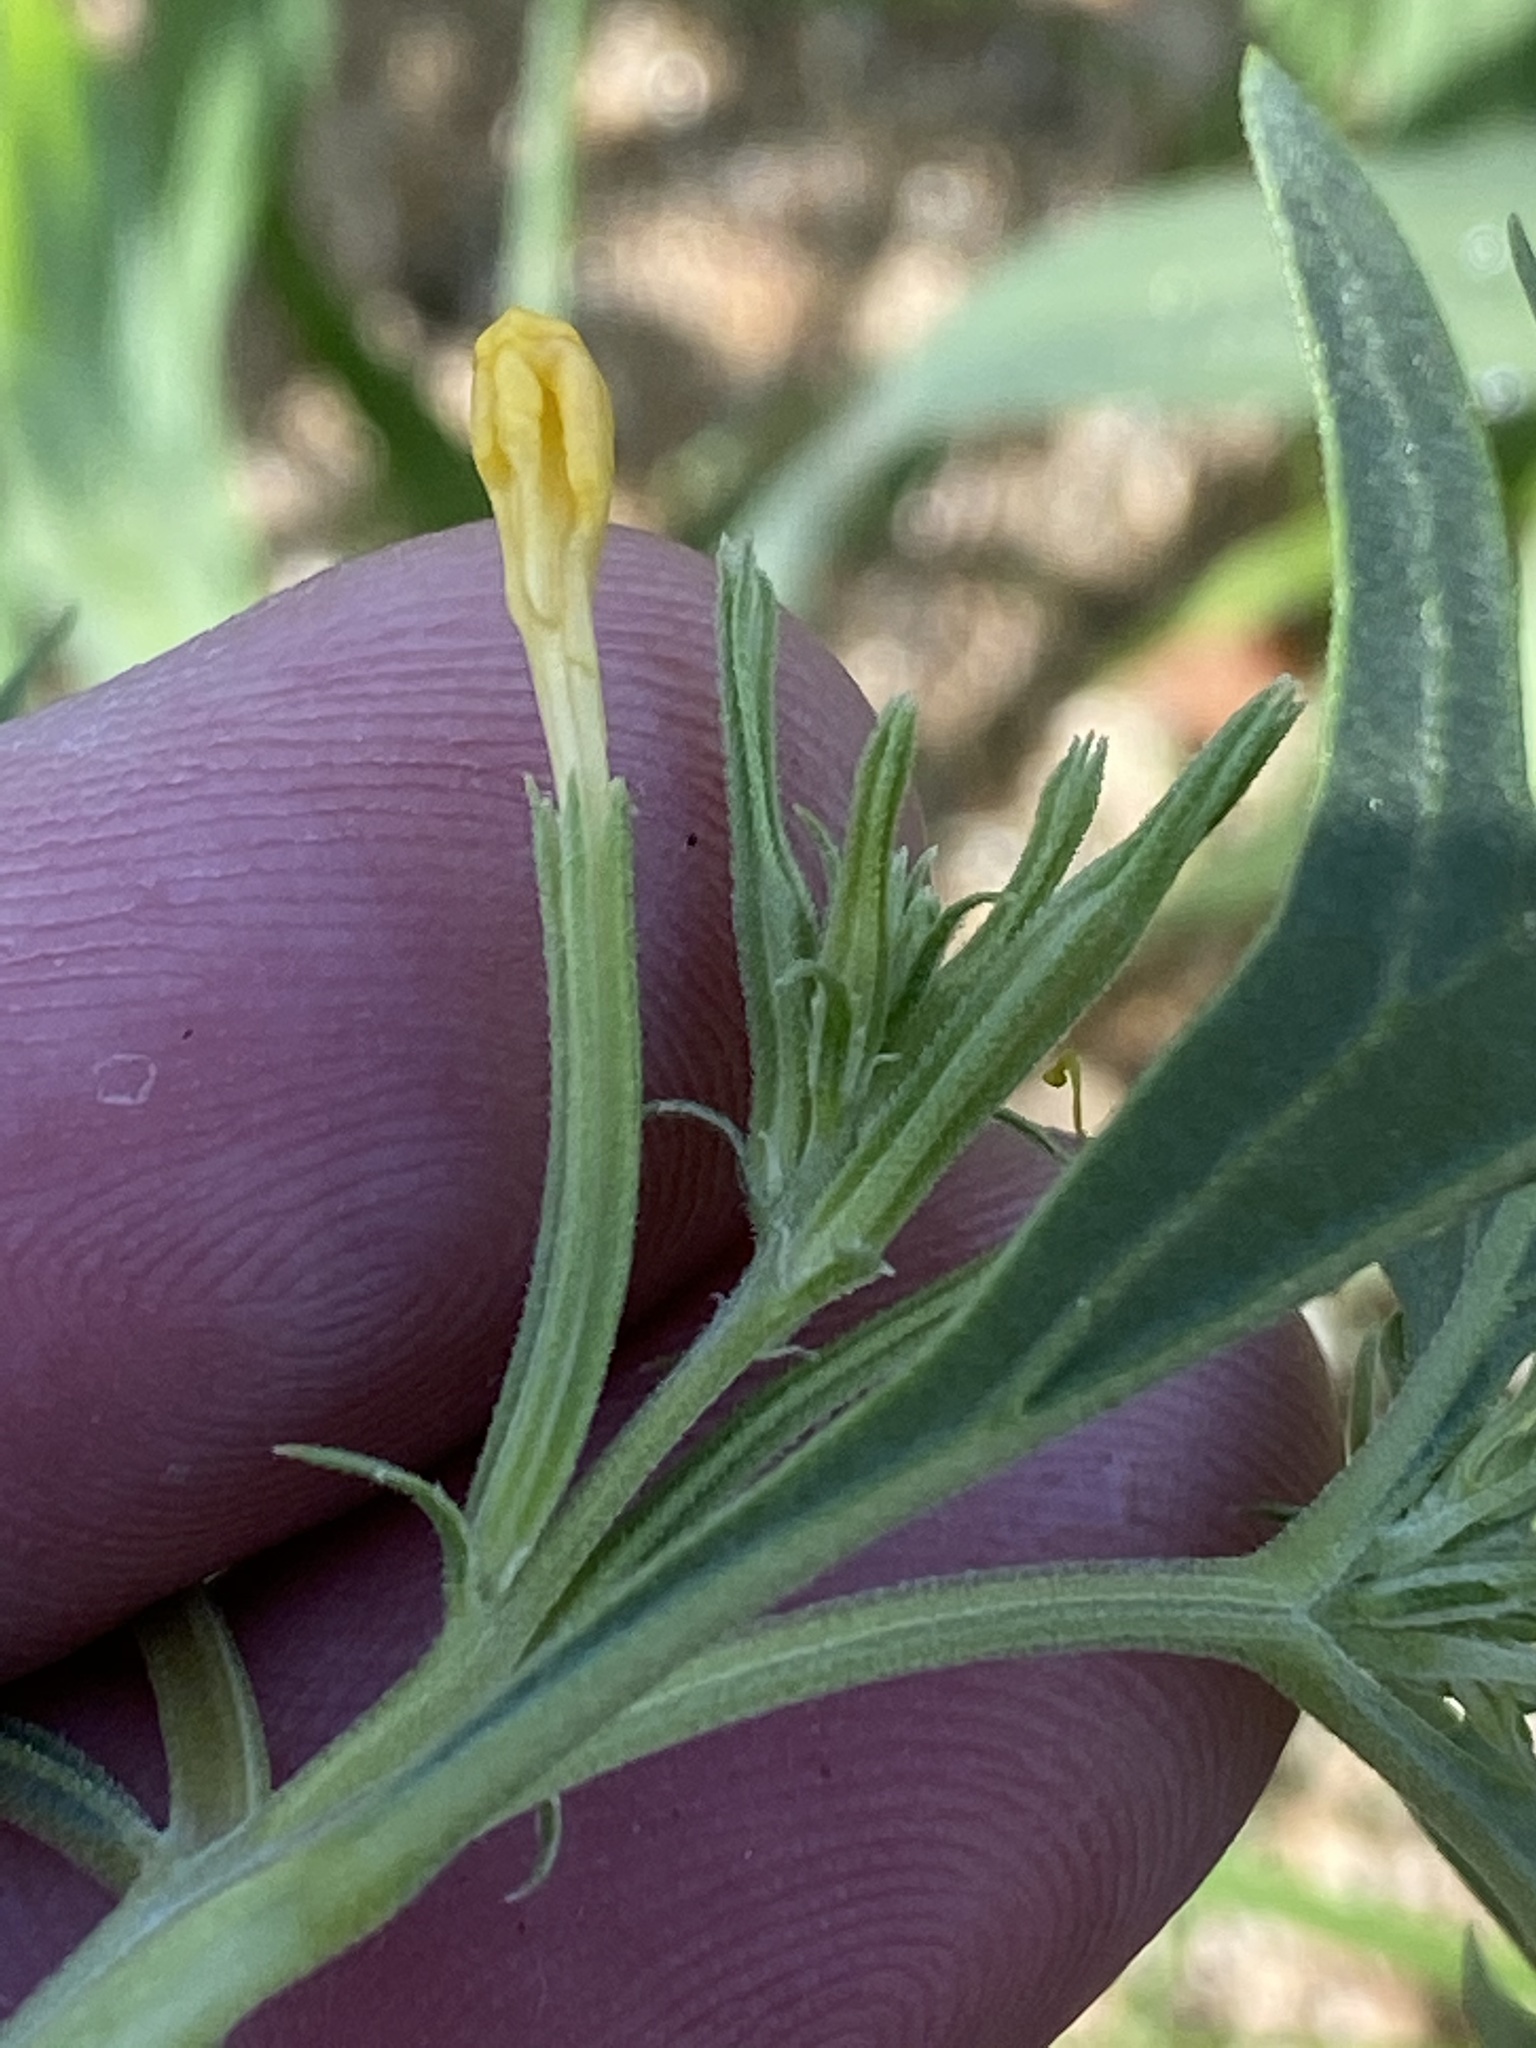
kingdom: Plantae
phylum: Tracheophyta
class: Magnoliopsida
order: Lamiales
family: Verbenaceae
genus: Chascanum
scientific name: Chascanum pinnatifidum
